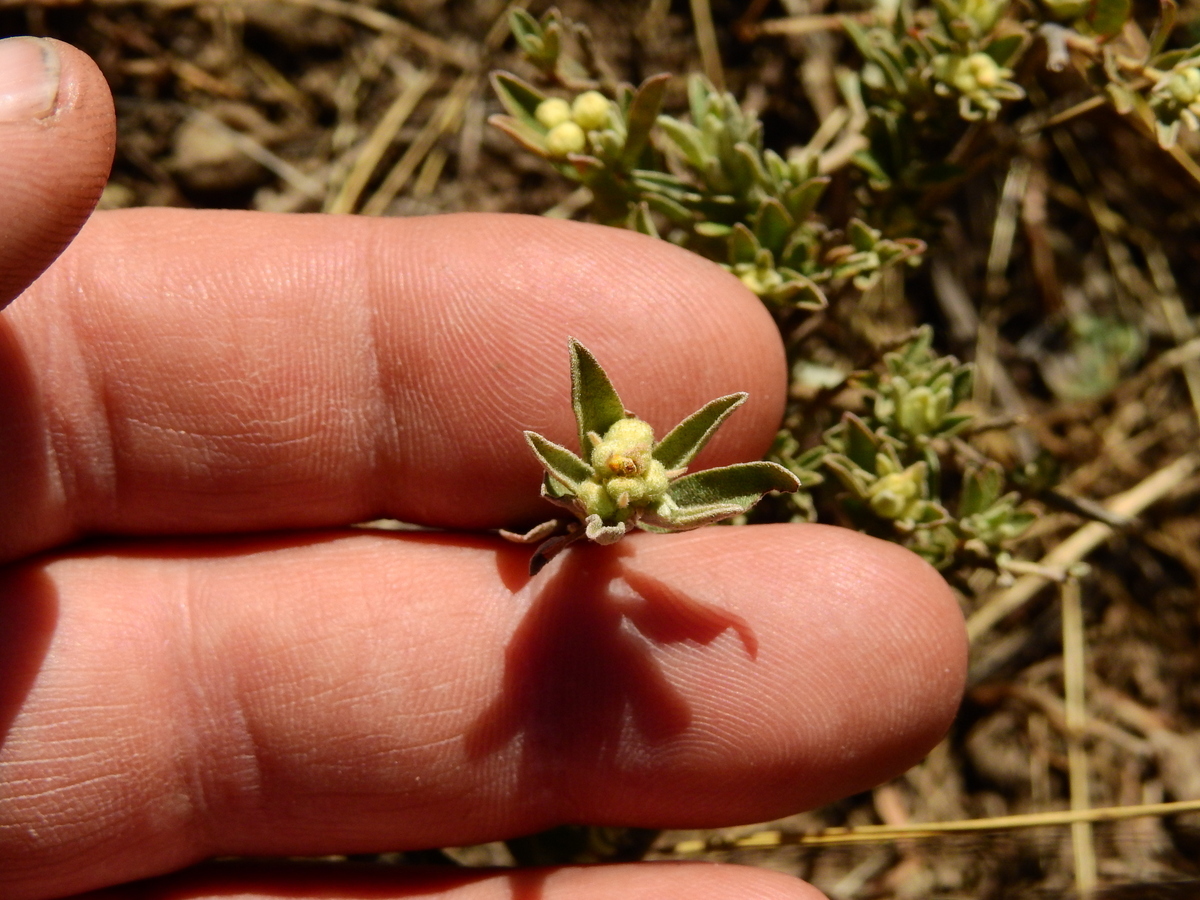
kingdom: Plantae
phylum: Tracheophyta
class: Magnoliopsida
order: Malpighiales
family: Euphorbiaceae
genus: Croton
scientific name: Croton parvifolius
